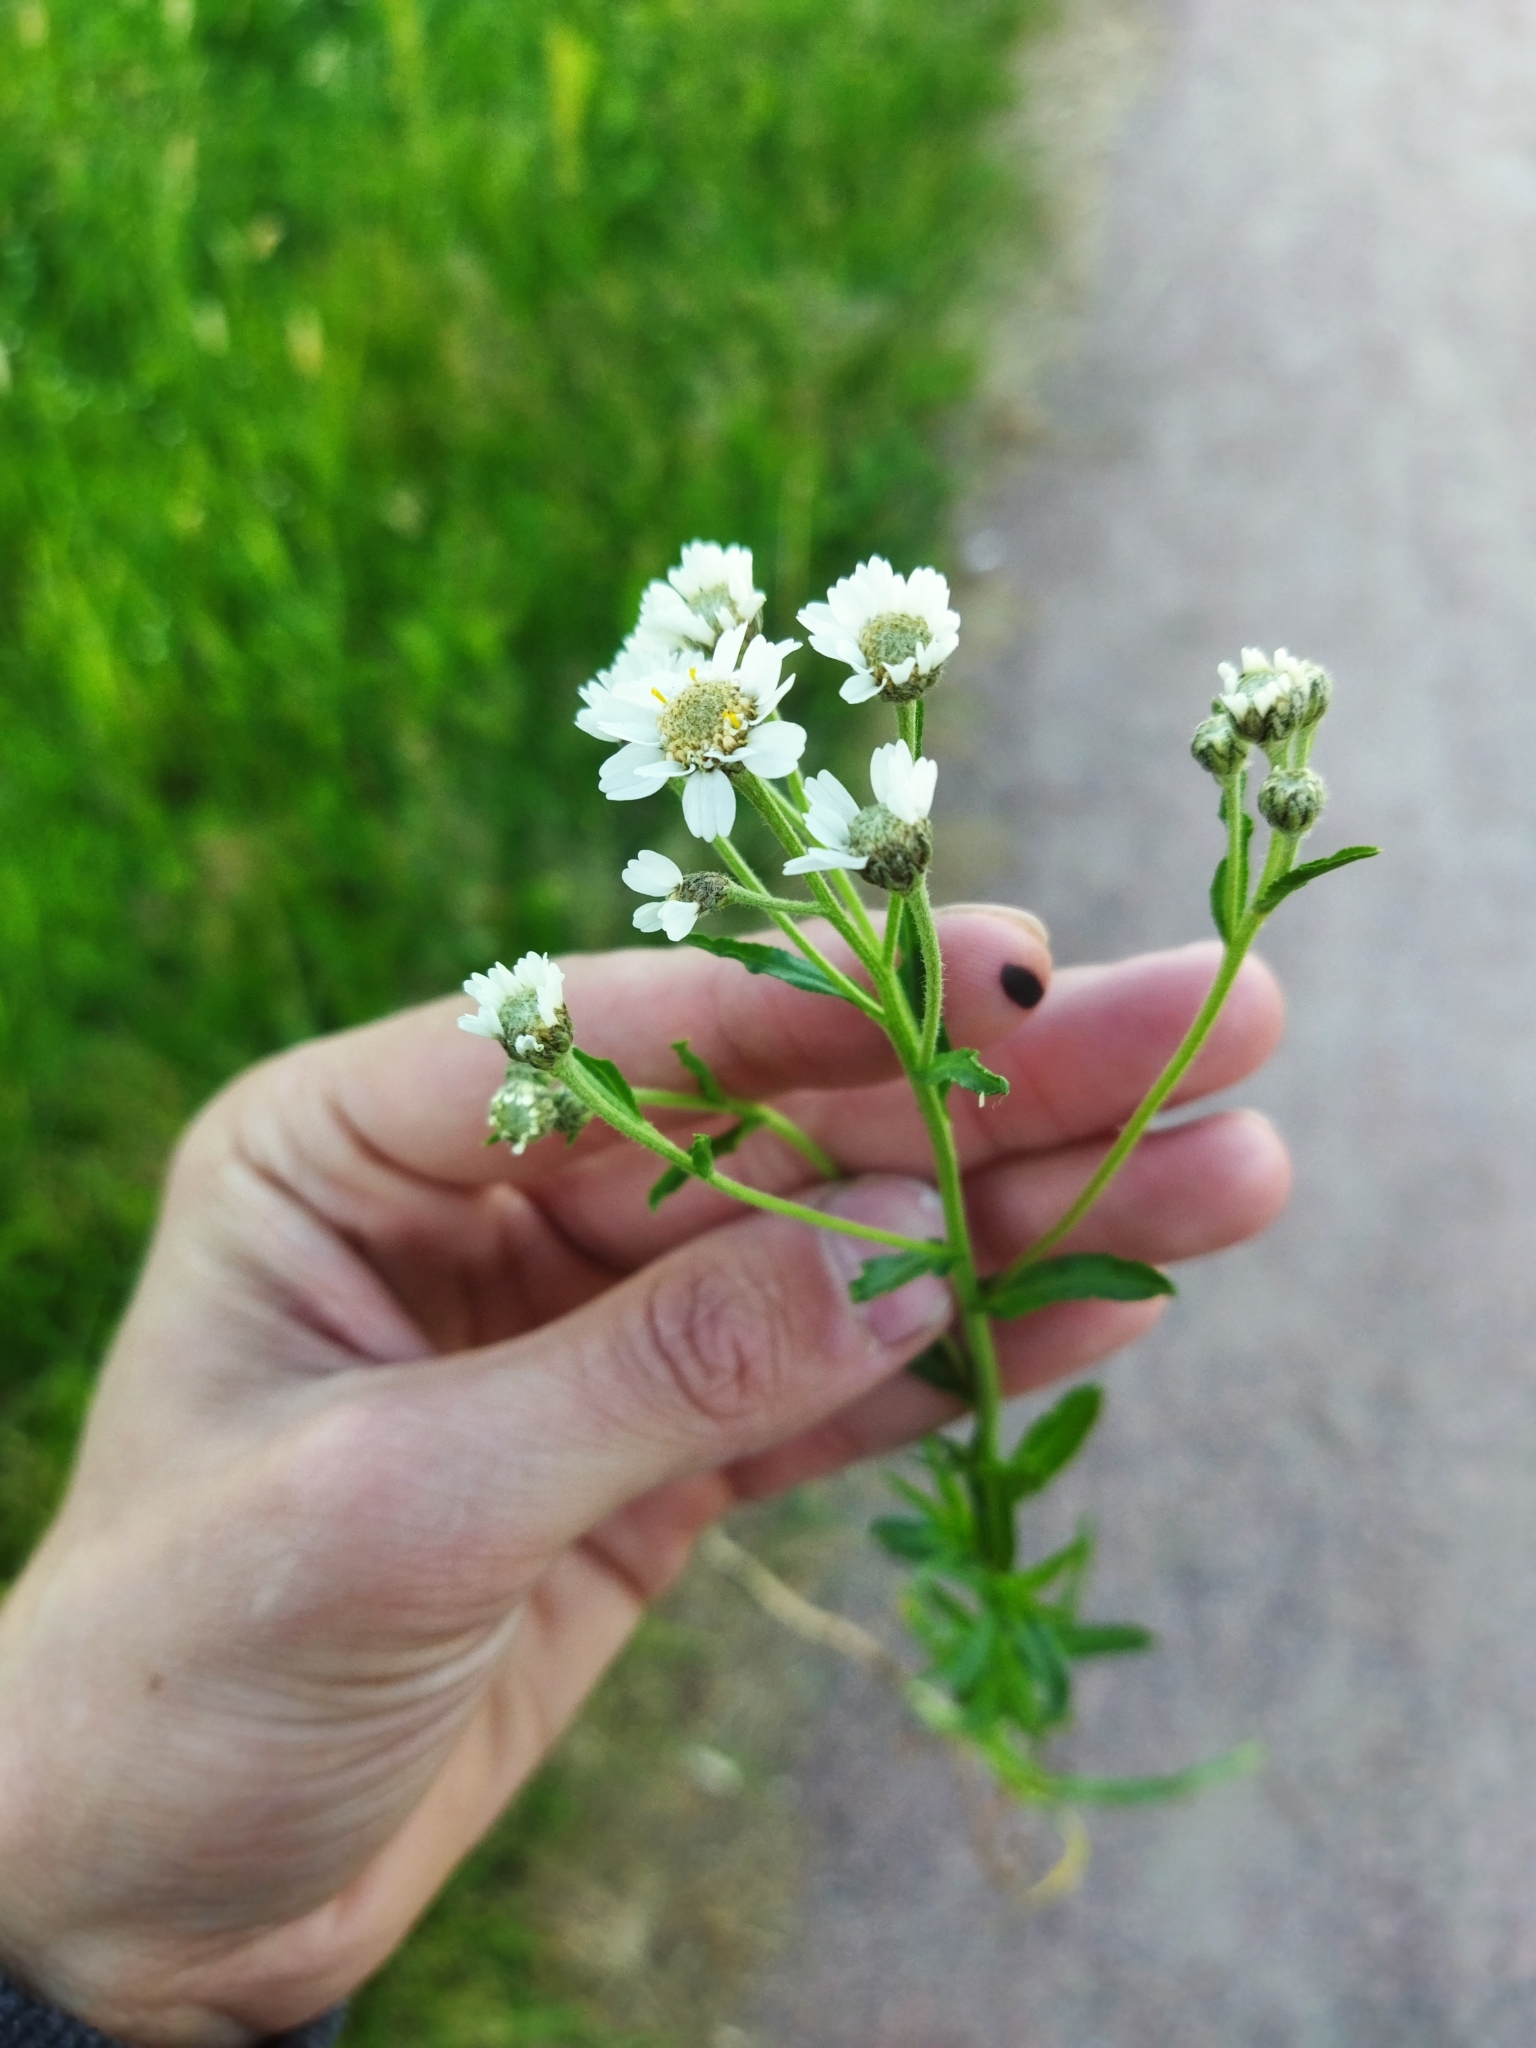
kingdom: Plantae
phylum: Tracheophyta
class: Magnoliopsida
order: Asterales
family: Asteraceae
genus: Achillea
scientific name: Achillea ptarmica
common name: Sneezeweed
